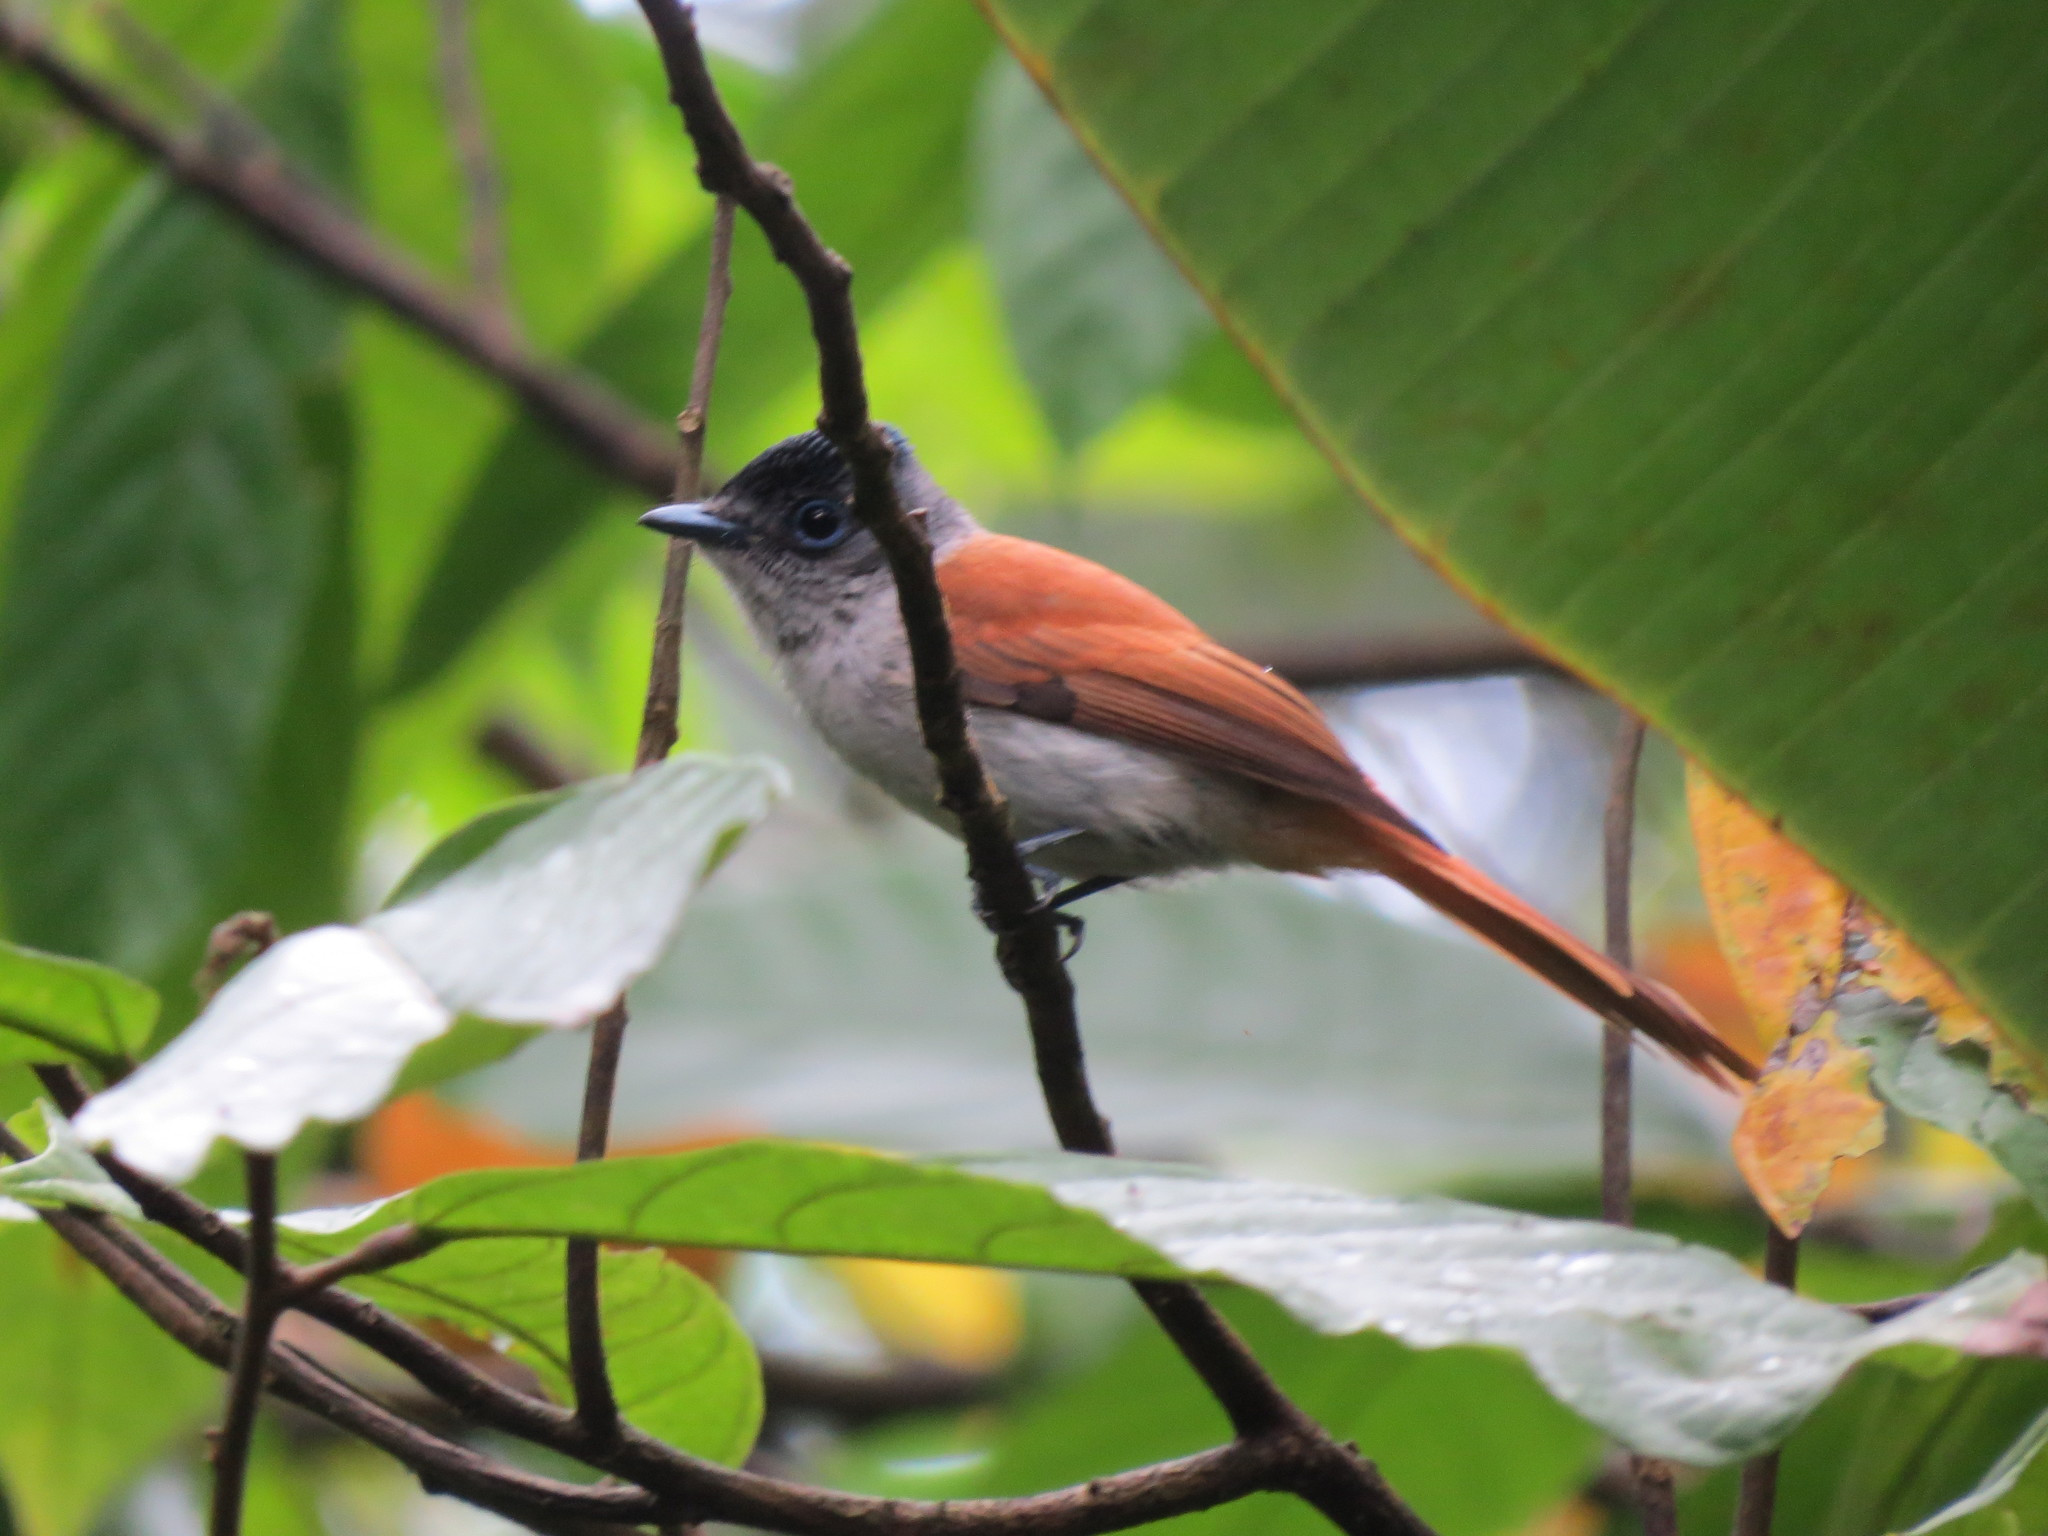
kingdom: Animalia
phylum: Chordata
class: Aves
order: Passeriformes
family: Monarchidae
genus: Terpsiphone
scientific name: Terpsiphone atrochalybeia
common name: Sao tome paradise flycatcher
